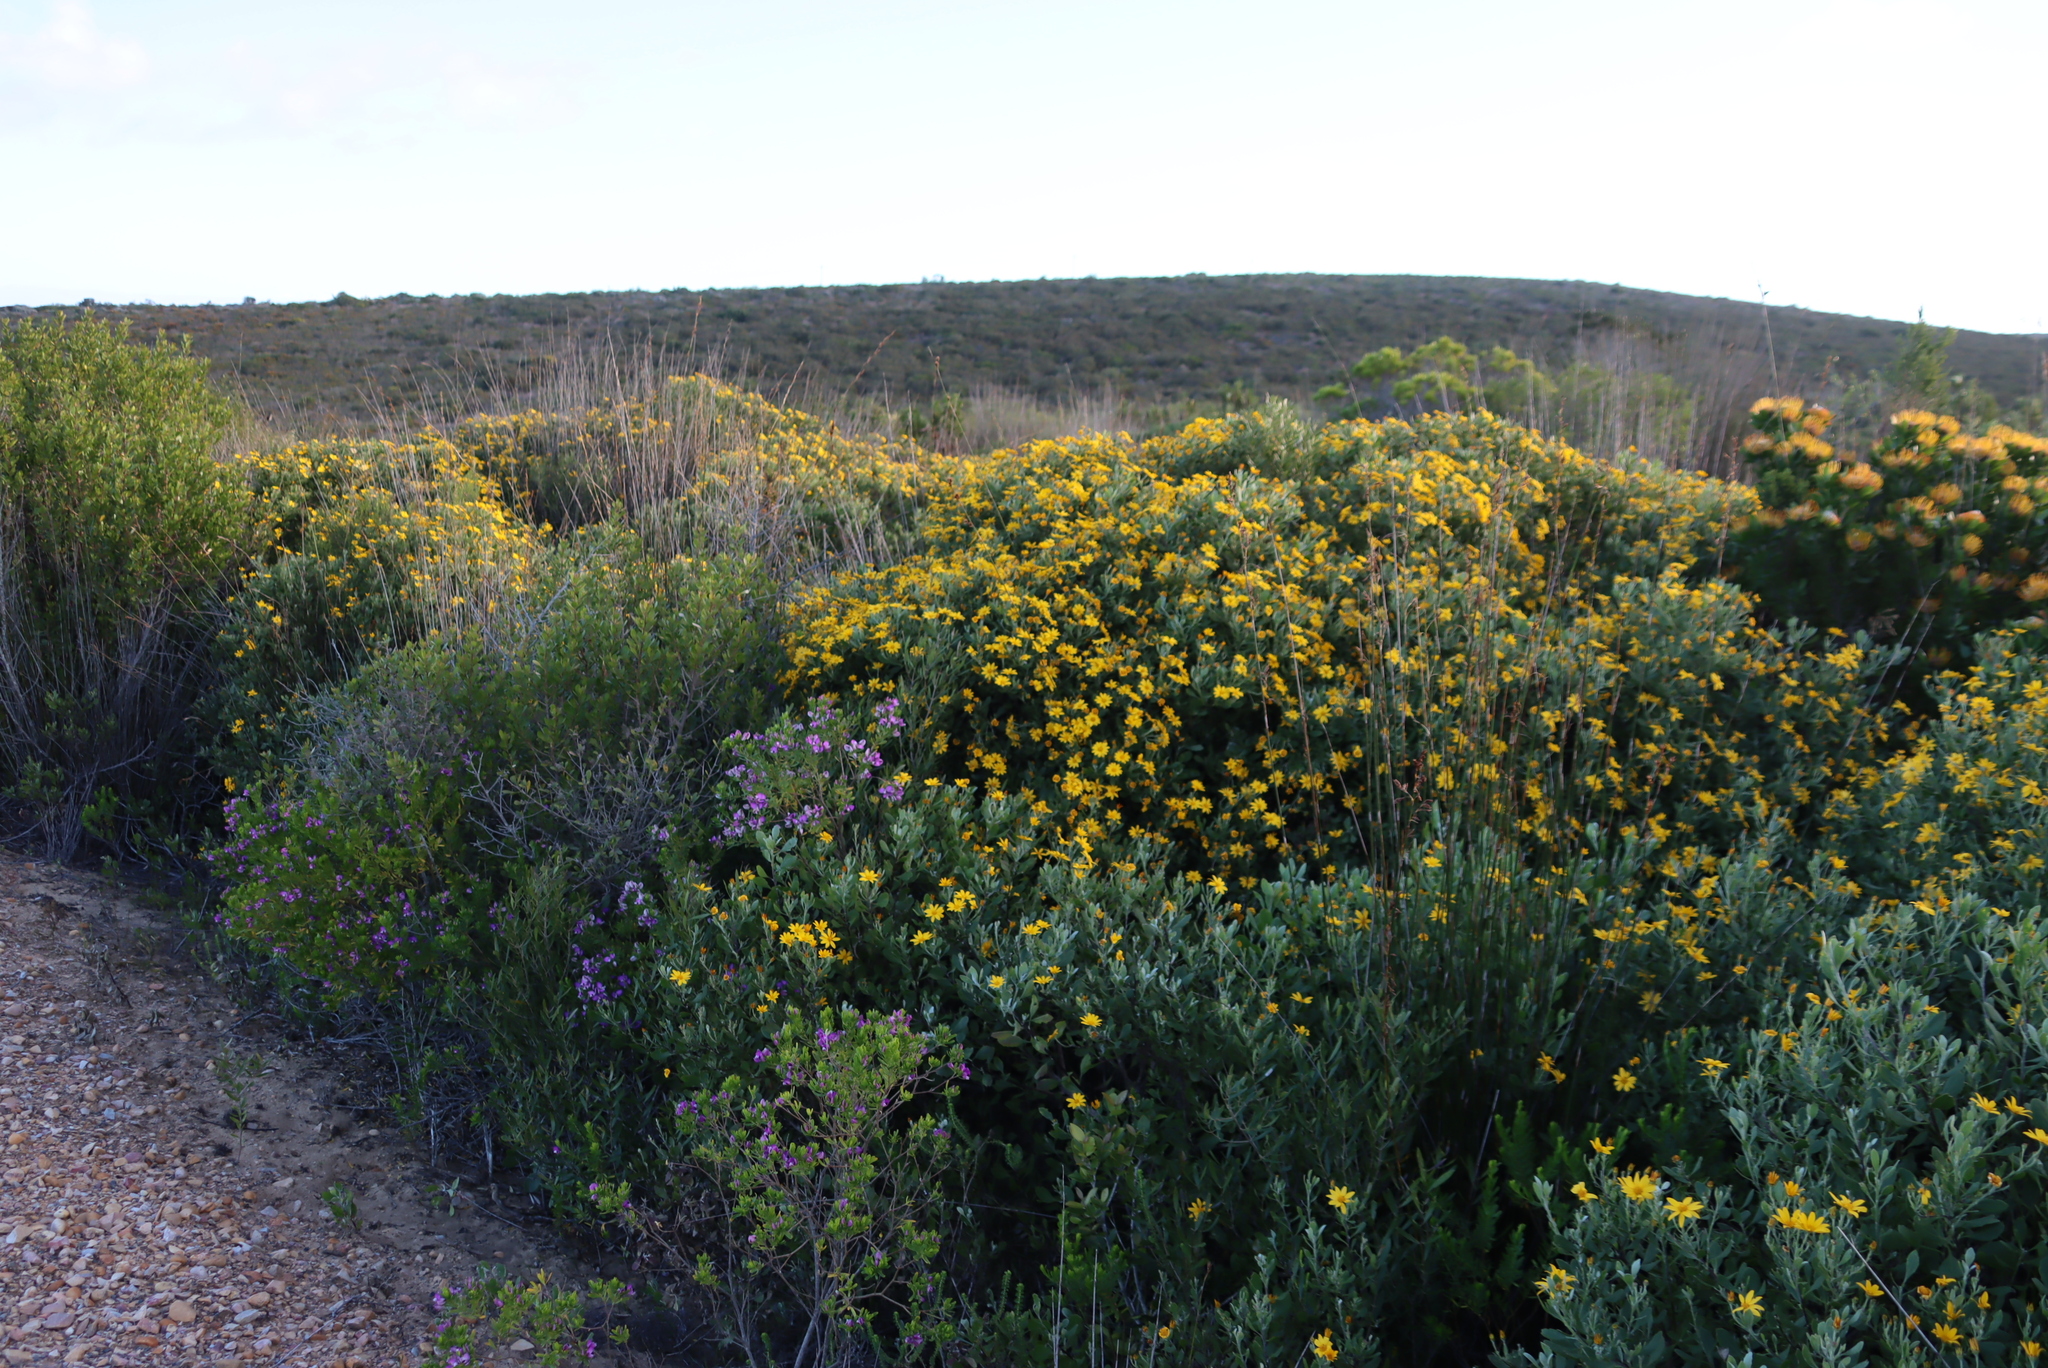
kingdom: Plantae
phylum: Tracheophyta
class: Magnoliopsida
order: Asterales
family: Asteraceae
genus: Osteospermum
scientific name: Osteospermum moniliferum
